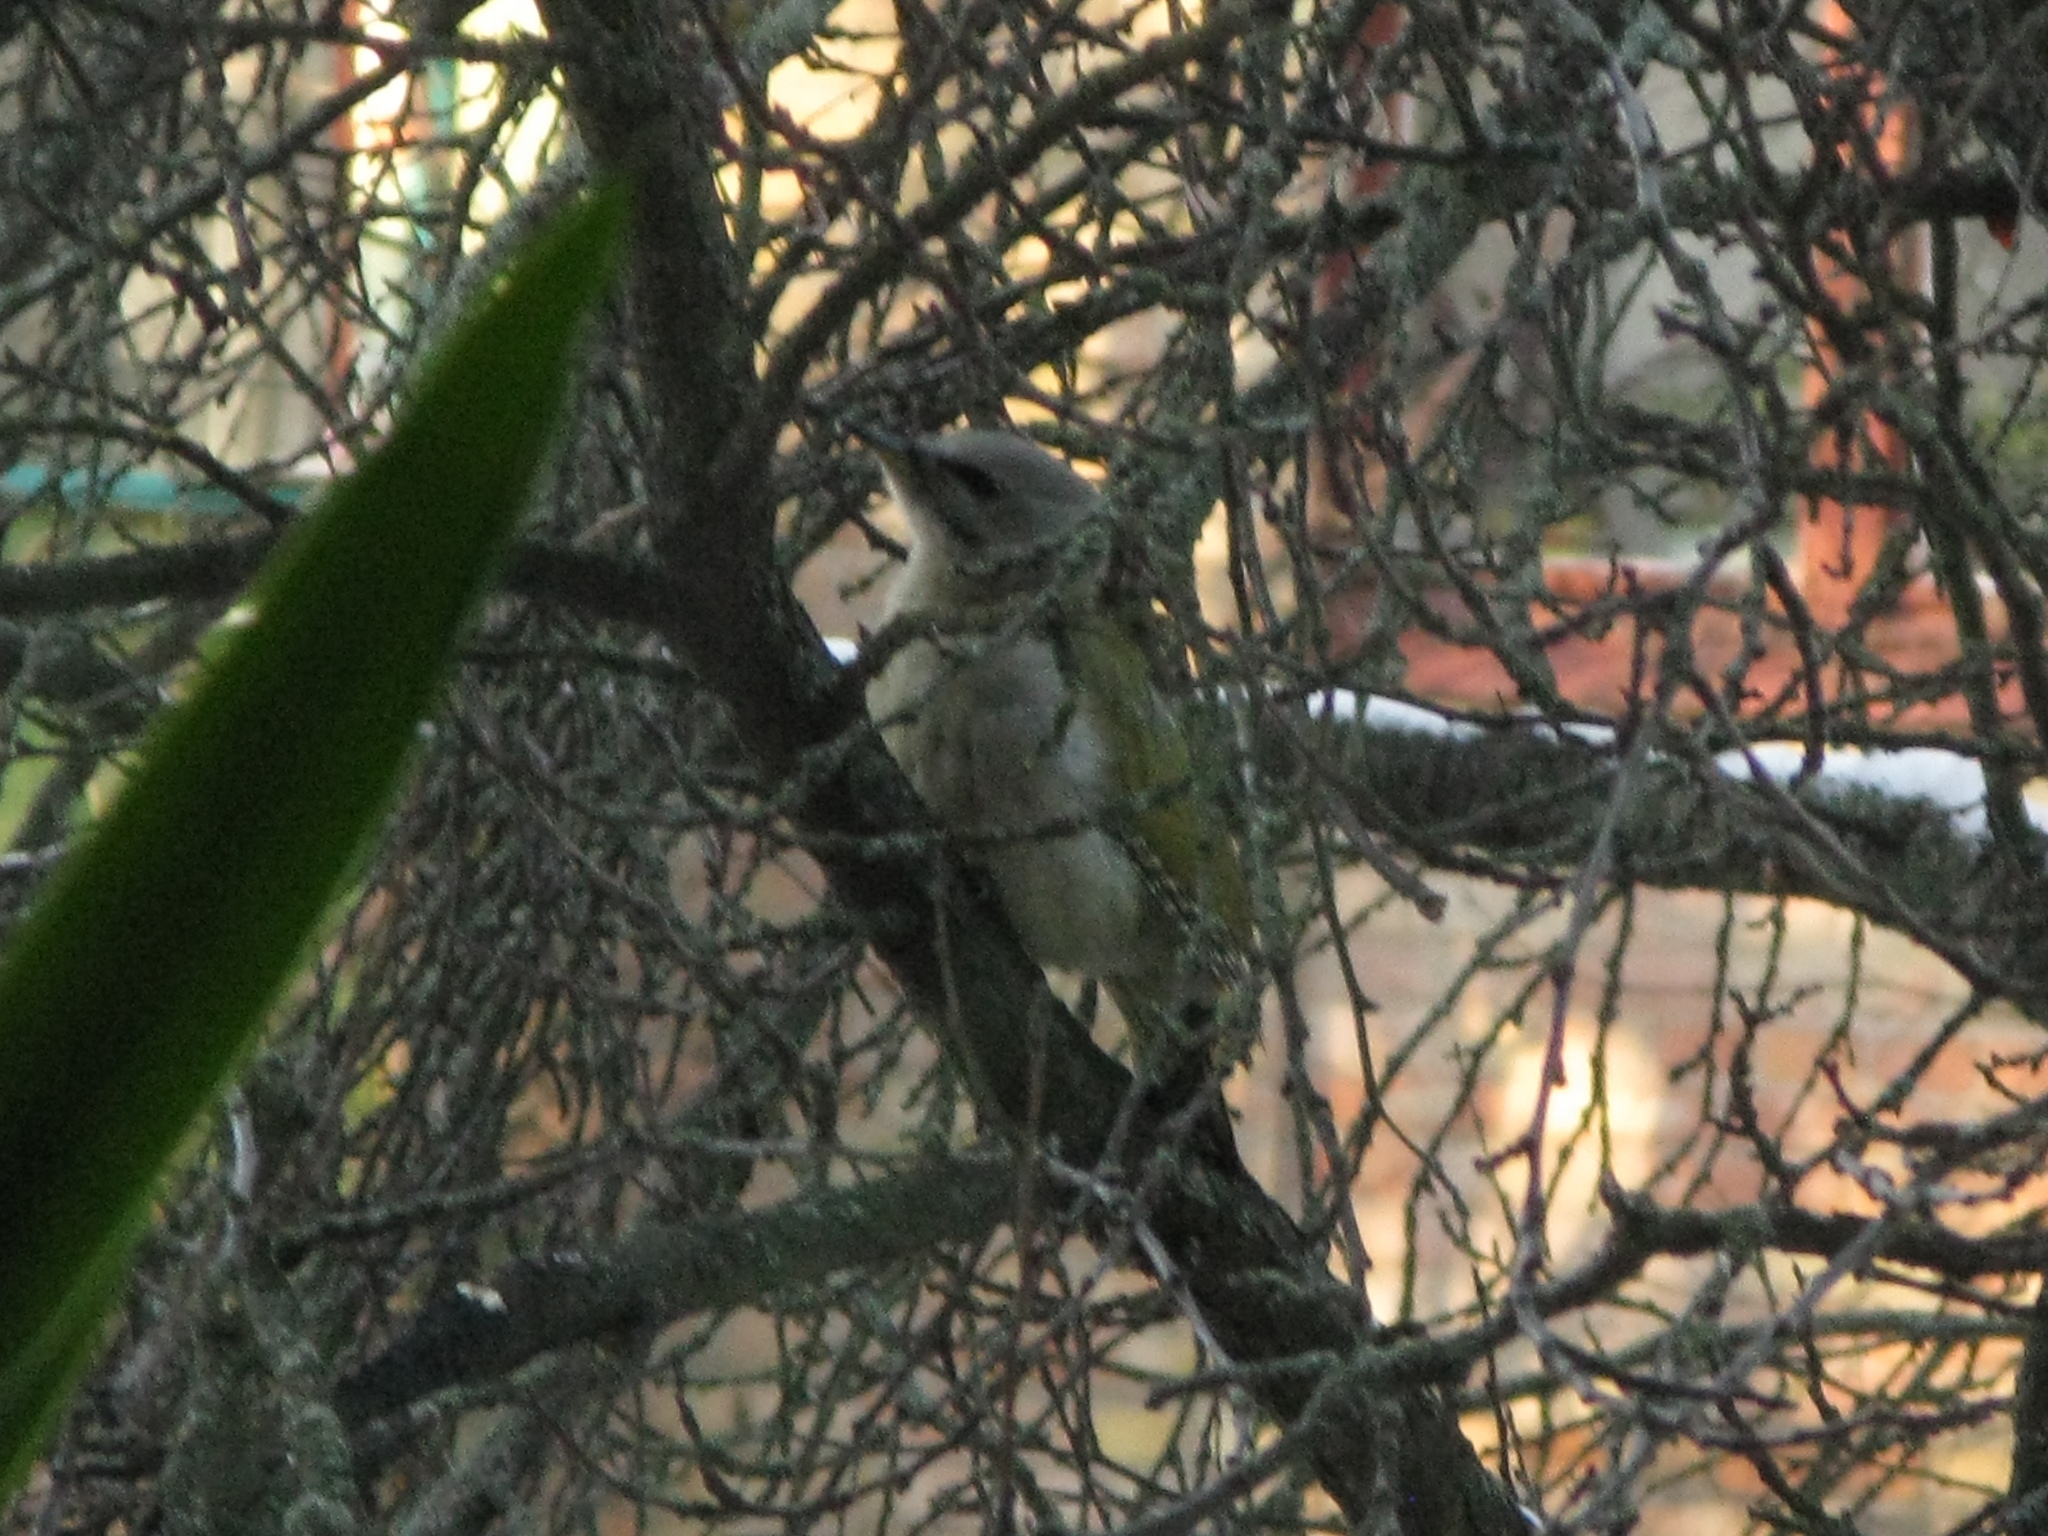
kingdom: Animalia
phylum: Chordata
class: Aves
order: Piciformes
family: Picidae
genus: Picus
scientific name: Picus canus
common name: Grey-headed woodpecker
